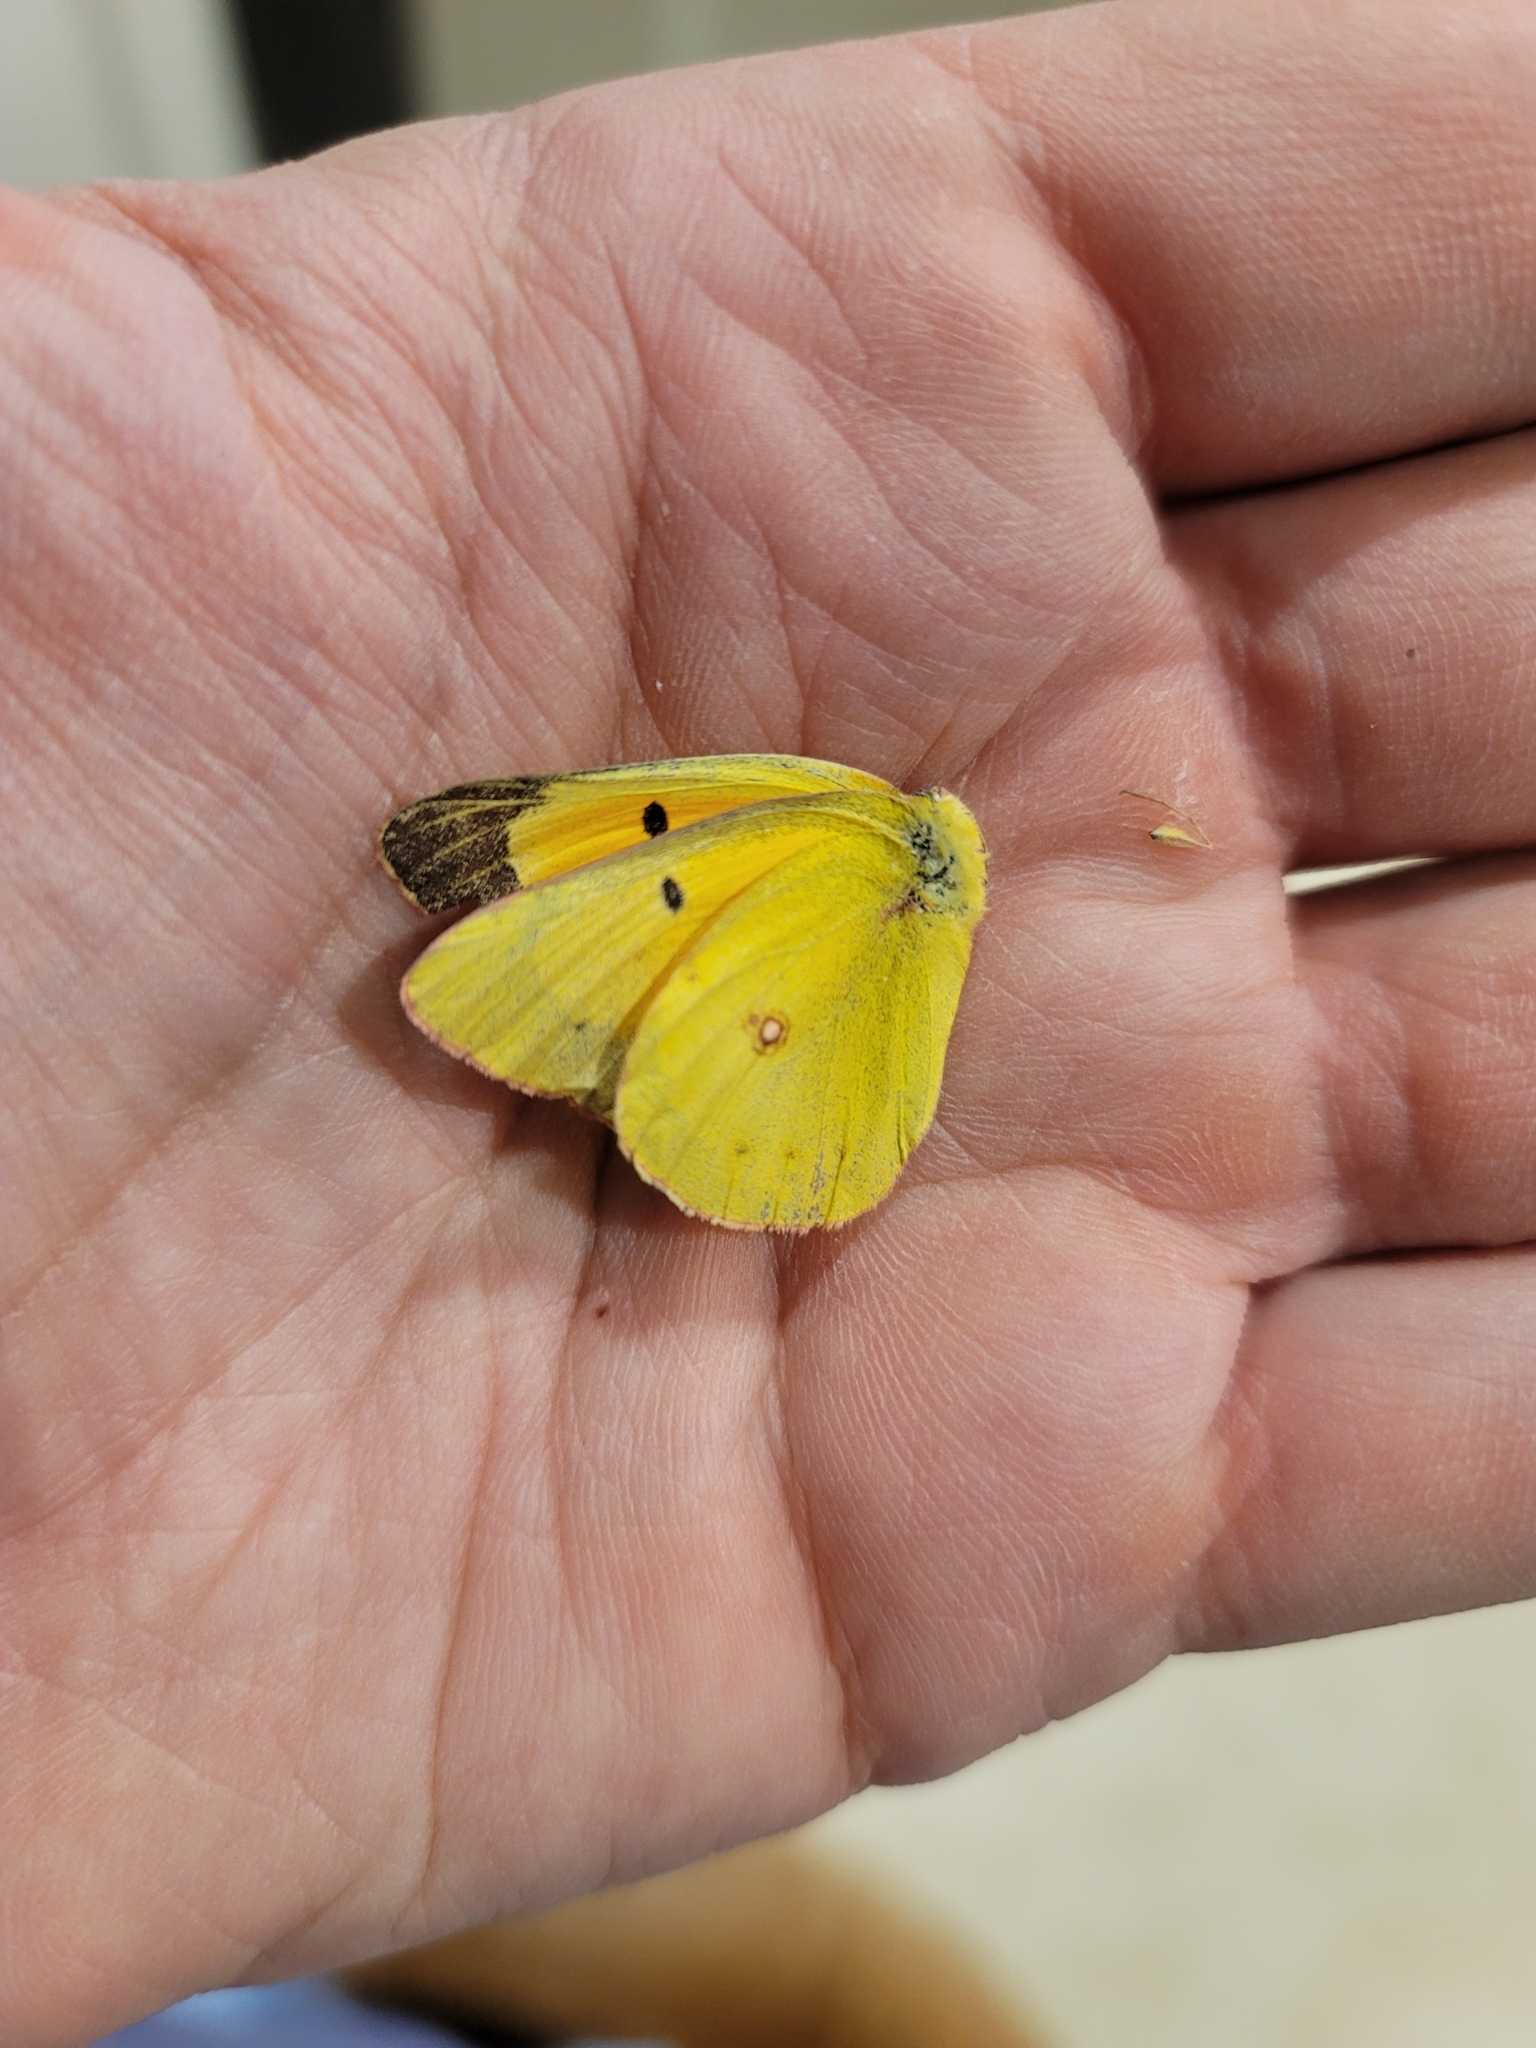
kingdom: Animalia
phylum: Arthropoda
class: Insecta
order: Lepidoptera
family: Pieridae
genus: Colias
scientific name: Colias eurytheme
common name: Alfalfa butterfly
